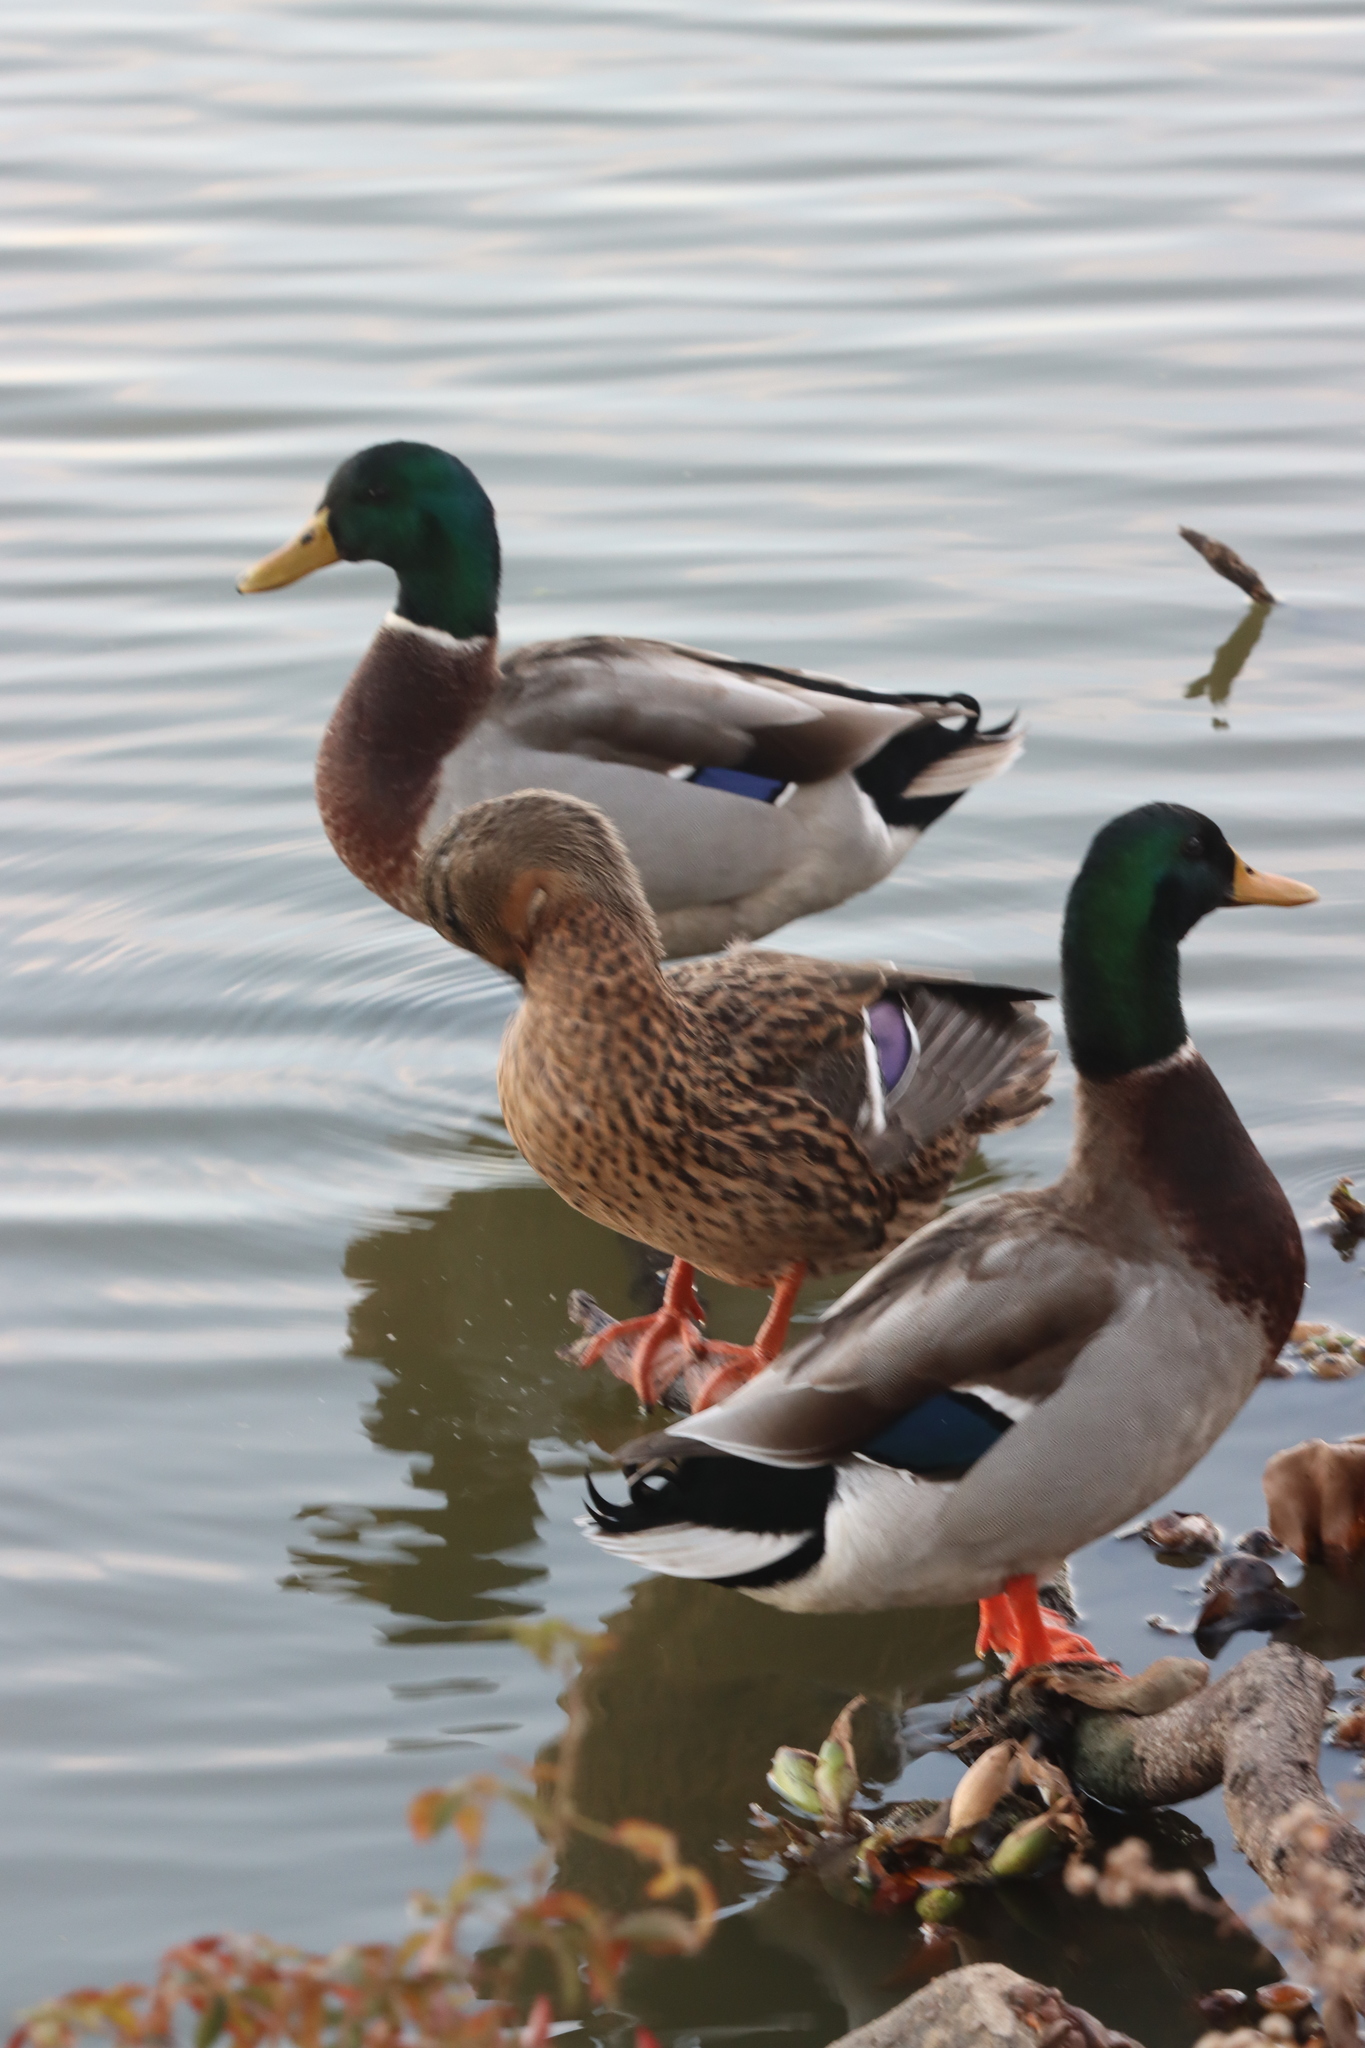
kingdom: Animalia
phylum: Chordata
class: Aves
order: Anseriformes
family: Anatidae
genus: Anas
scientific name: Anas platyrhynchos
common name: Mallard
